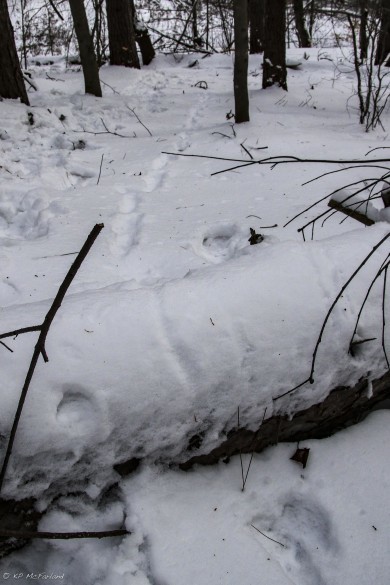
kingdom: Animalia
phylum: Chordata
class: Mammalia
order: Carnivora
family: Mustelidae
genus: Pekania
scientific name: Pekania pennanti
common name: Fisher
